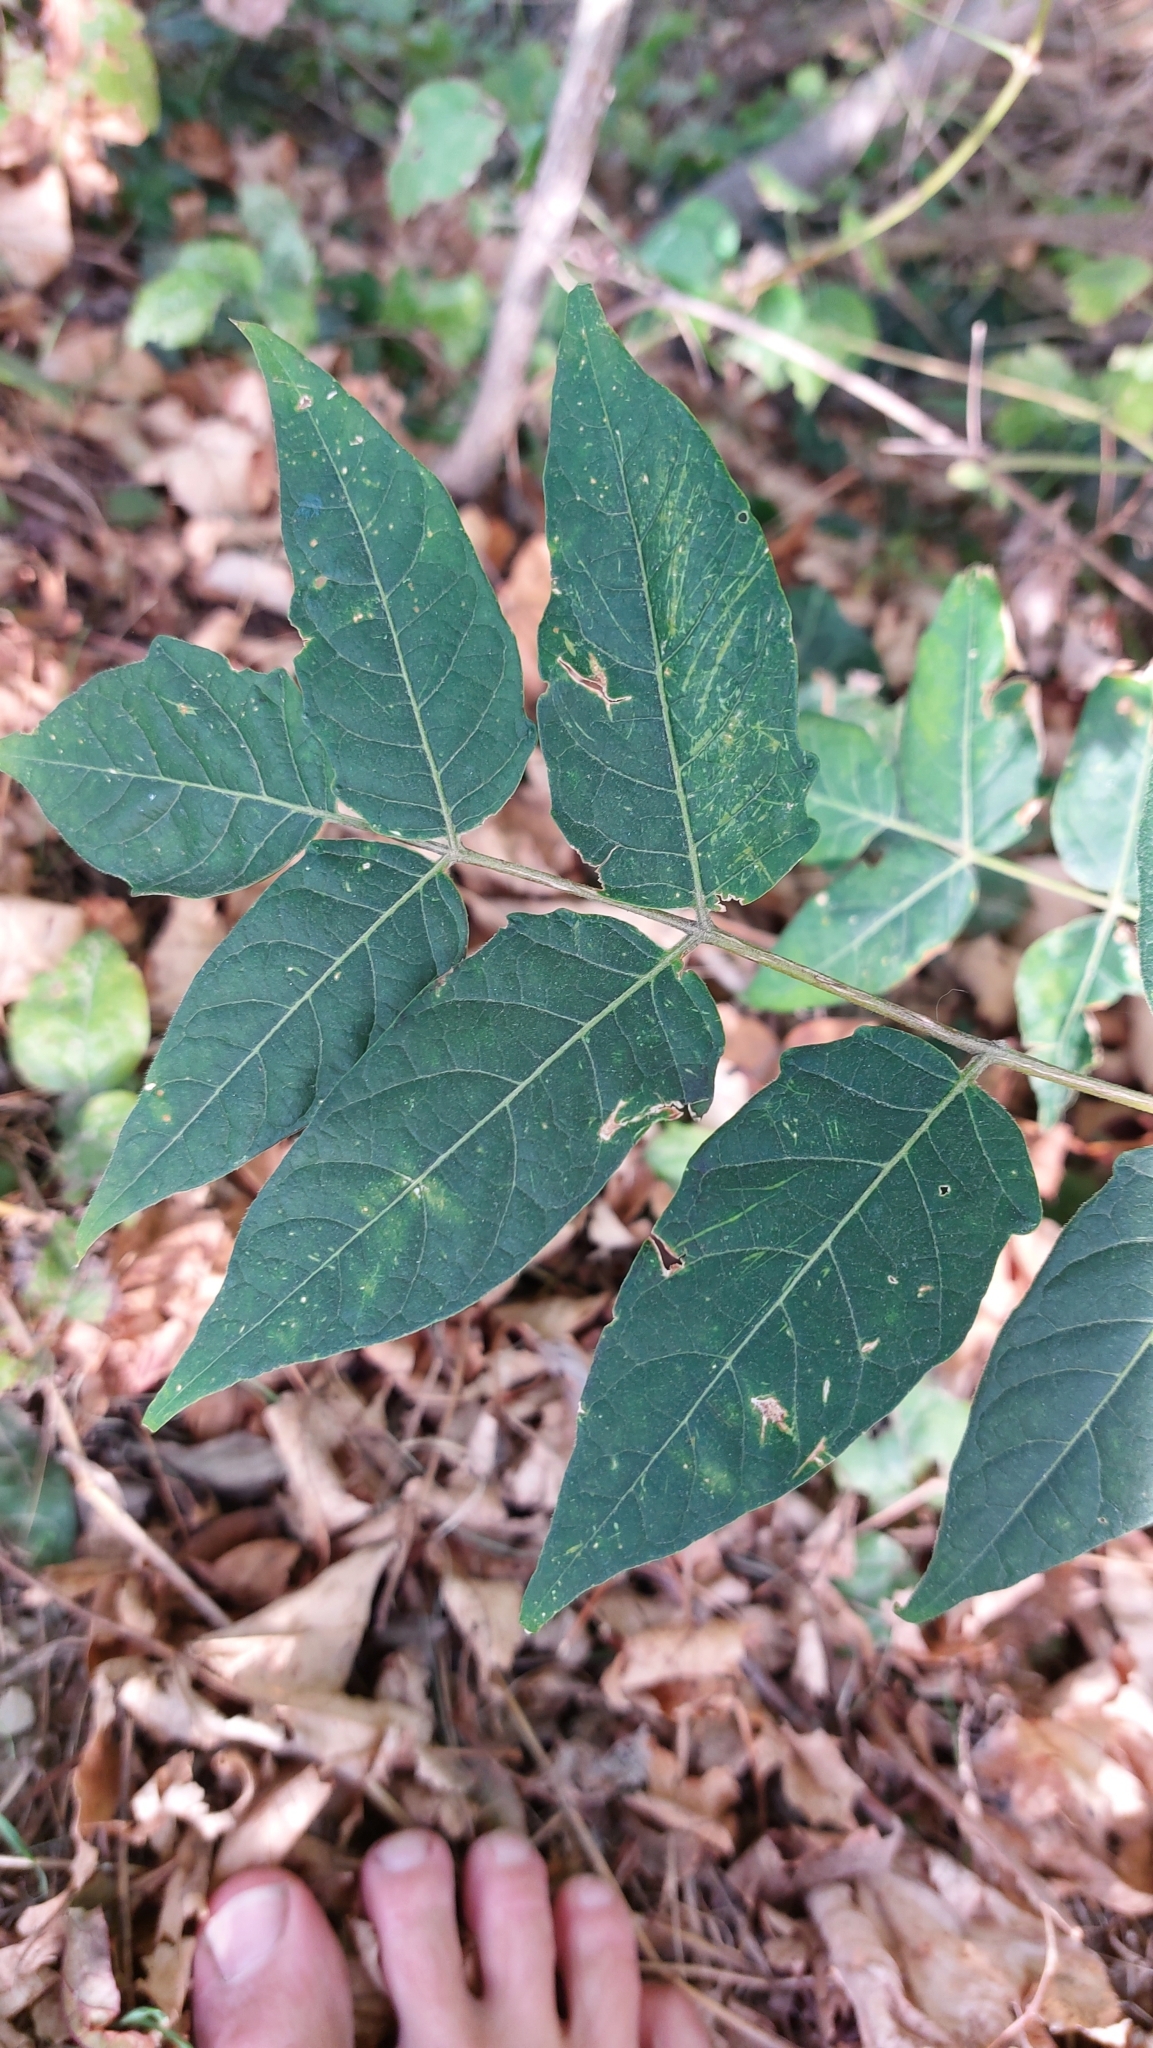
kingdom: Plantae
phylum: Tracheophyta
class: Magnoliopsida
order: Sapindales
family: Simaroubaceae
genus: Ailanthus
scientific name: Ailanthus altissima
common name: Tree-of-heaven
